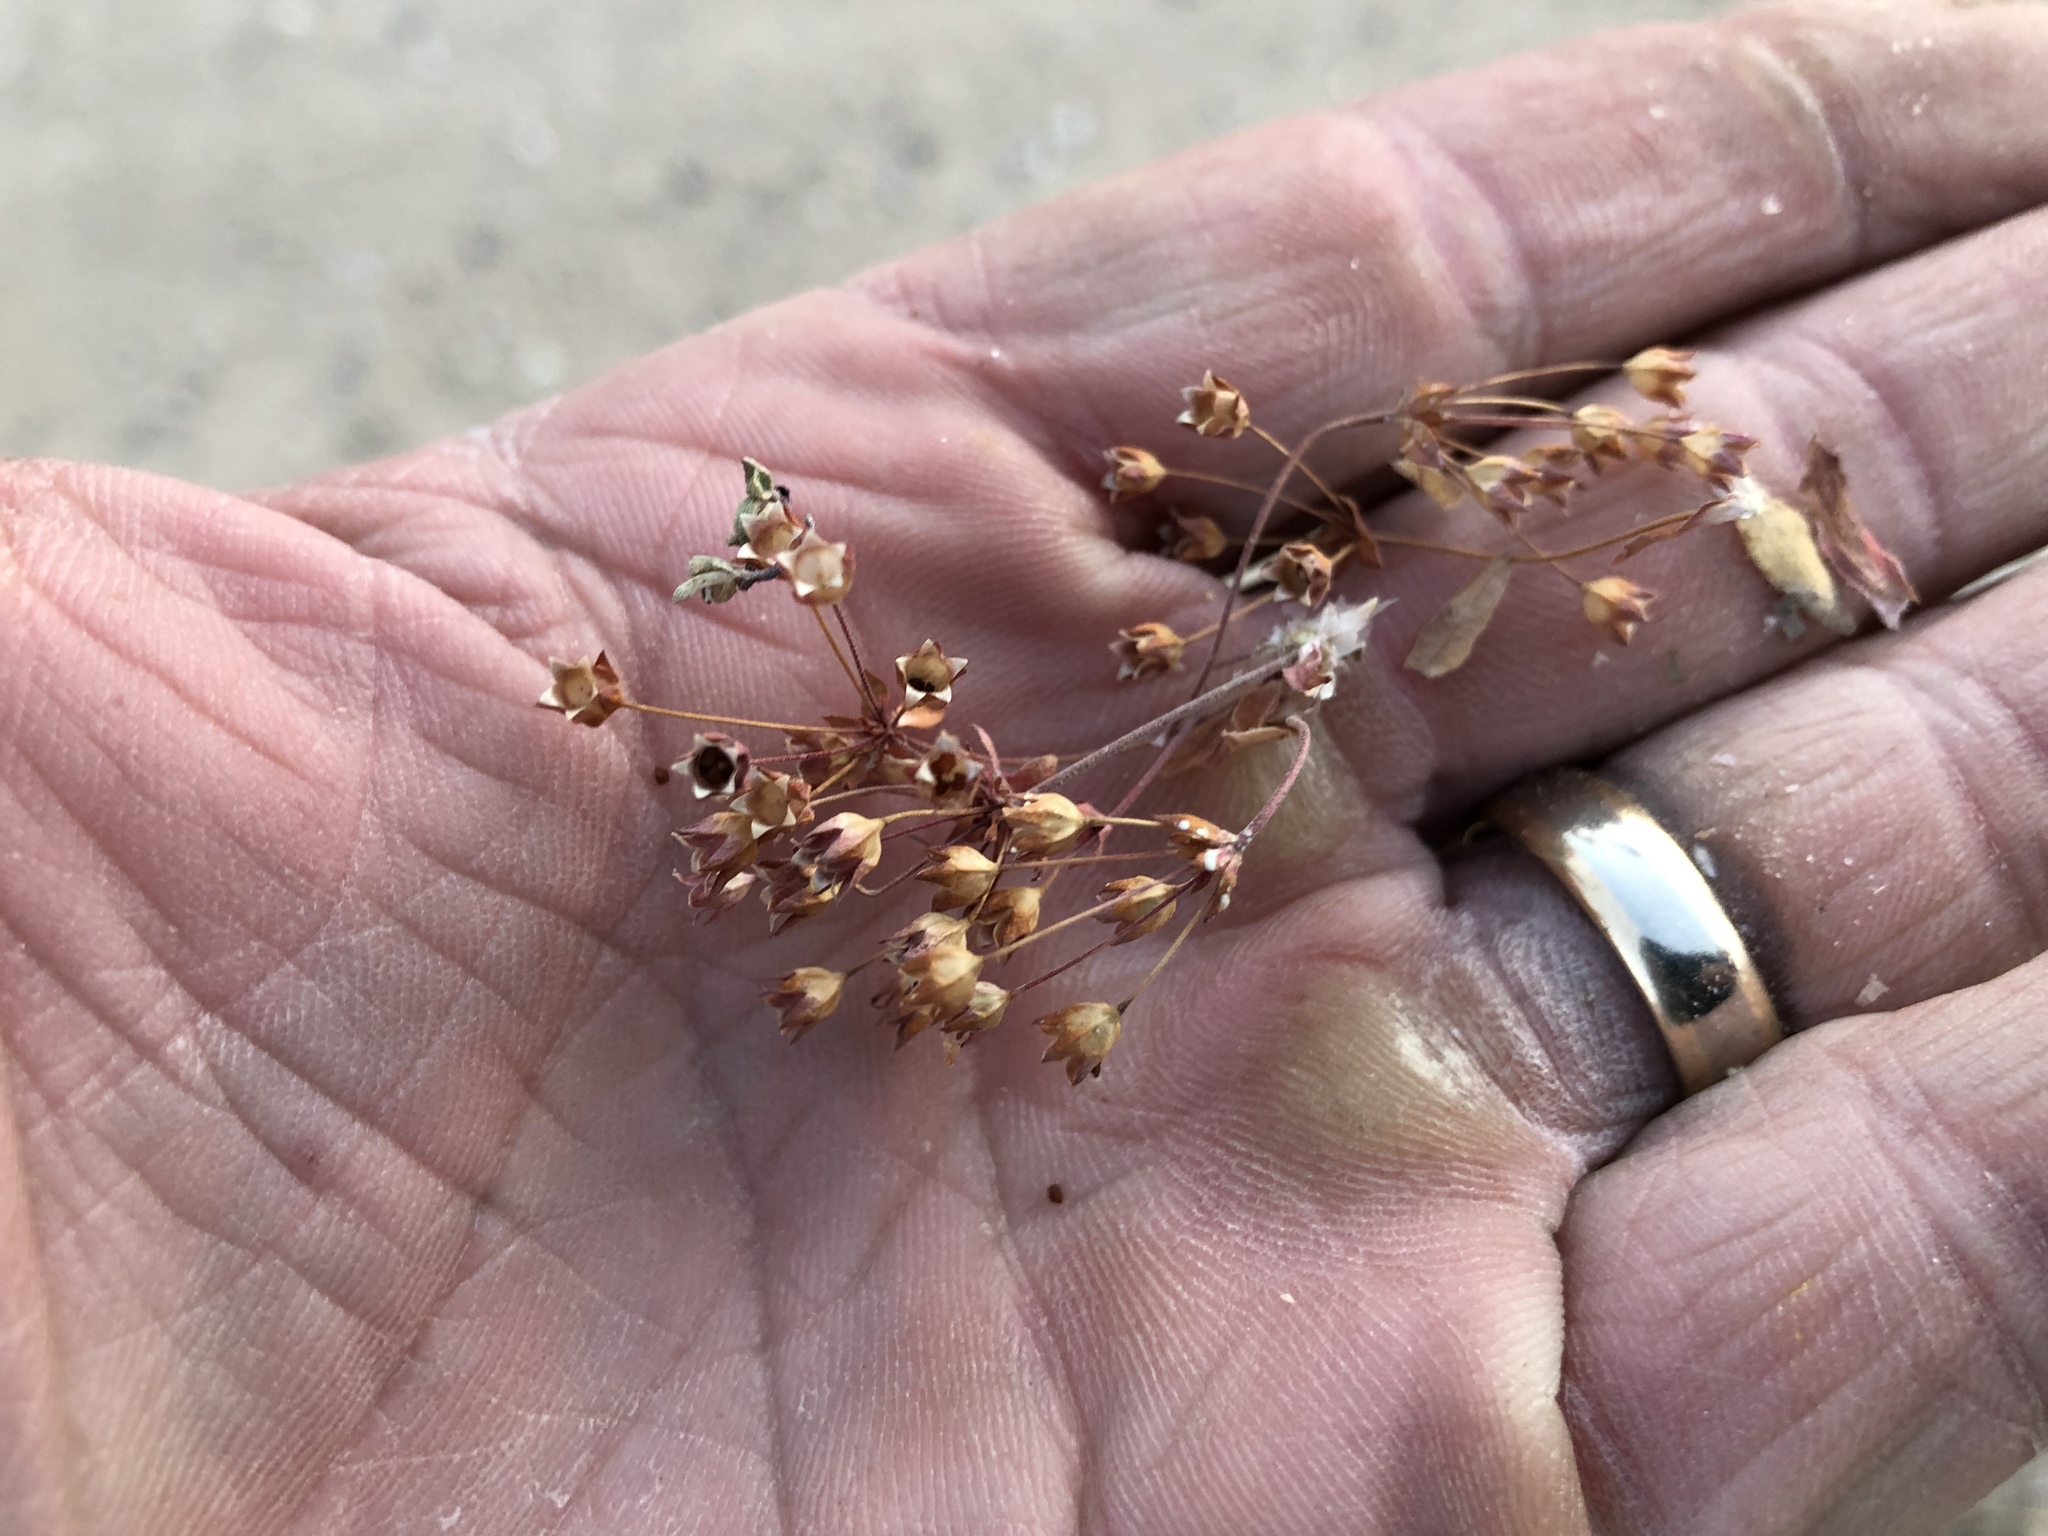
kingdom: Plantae
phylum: Tracheophyta
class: Magnoliopsida
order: Ericales
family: Primulaceae
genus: Androsace
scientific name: Androsace septentrionalis
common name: Hairy northern fairy-candelabra
